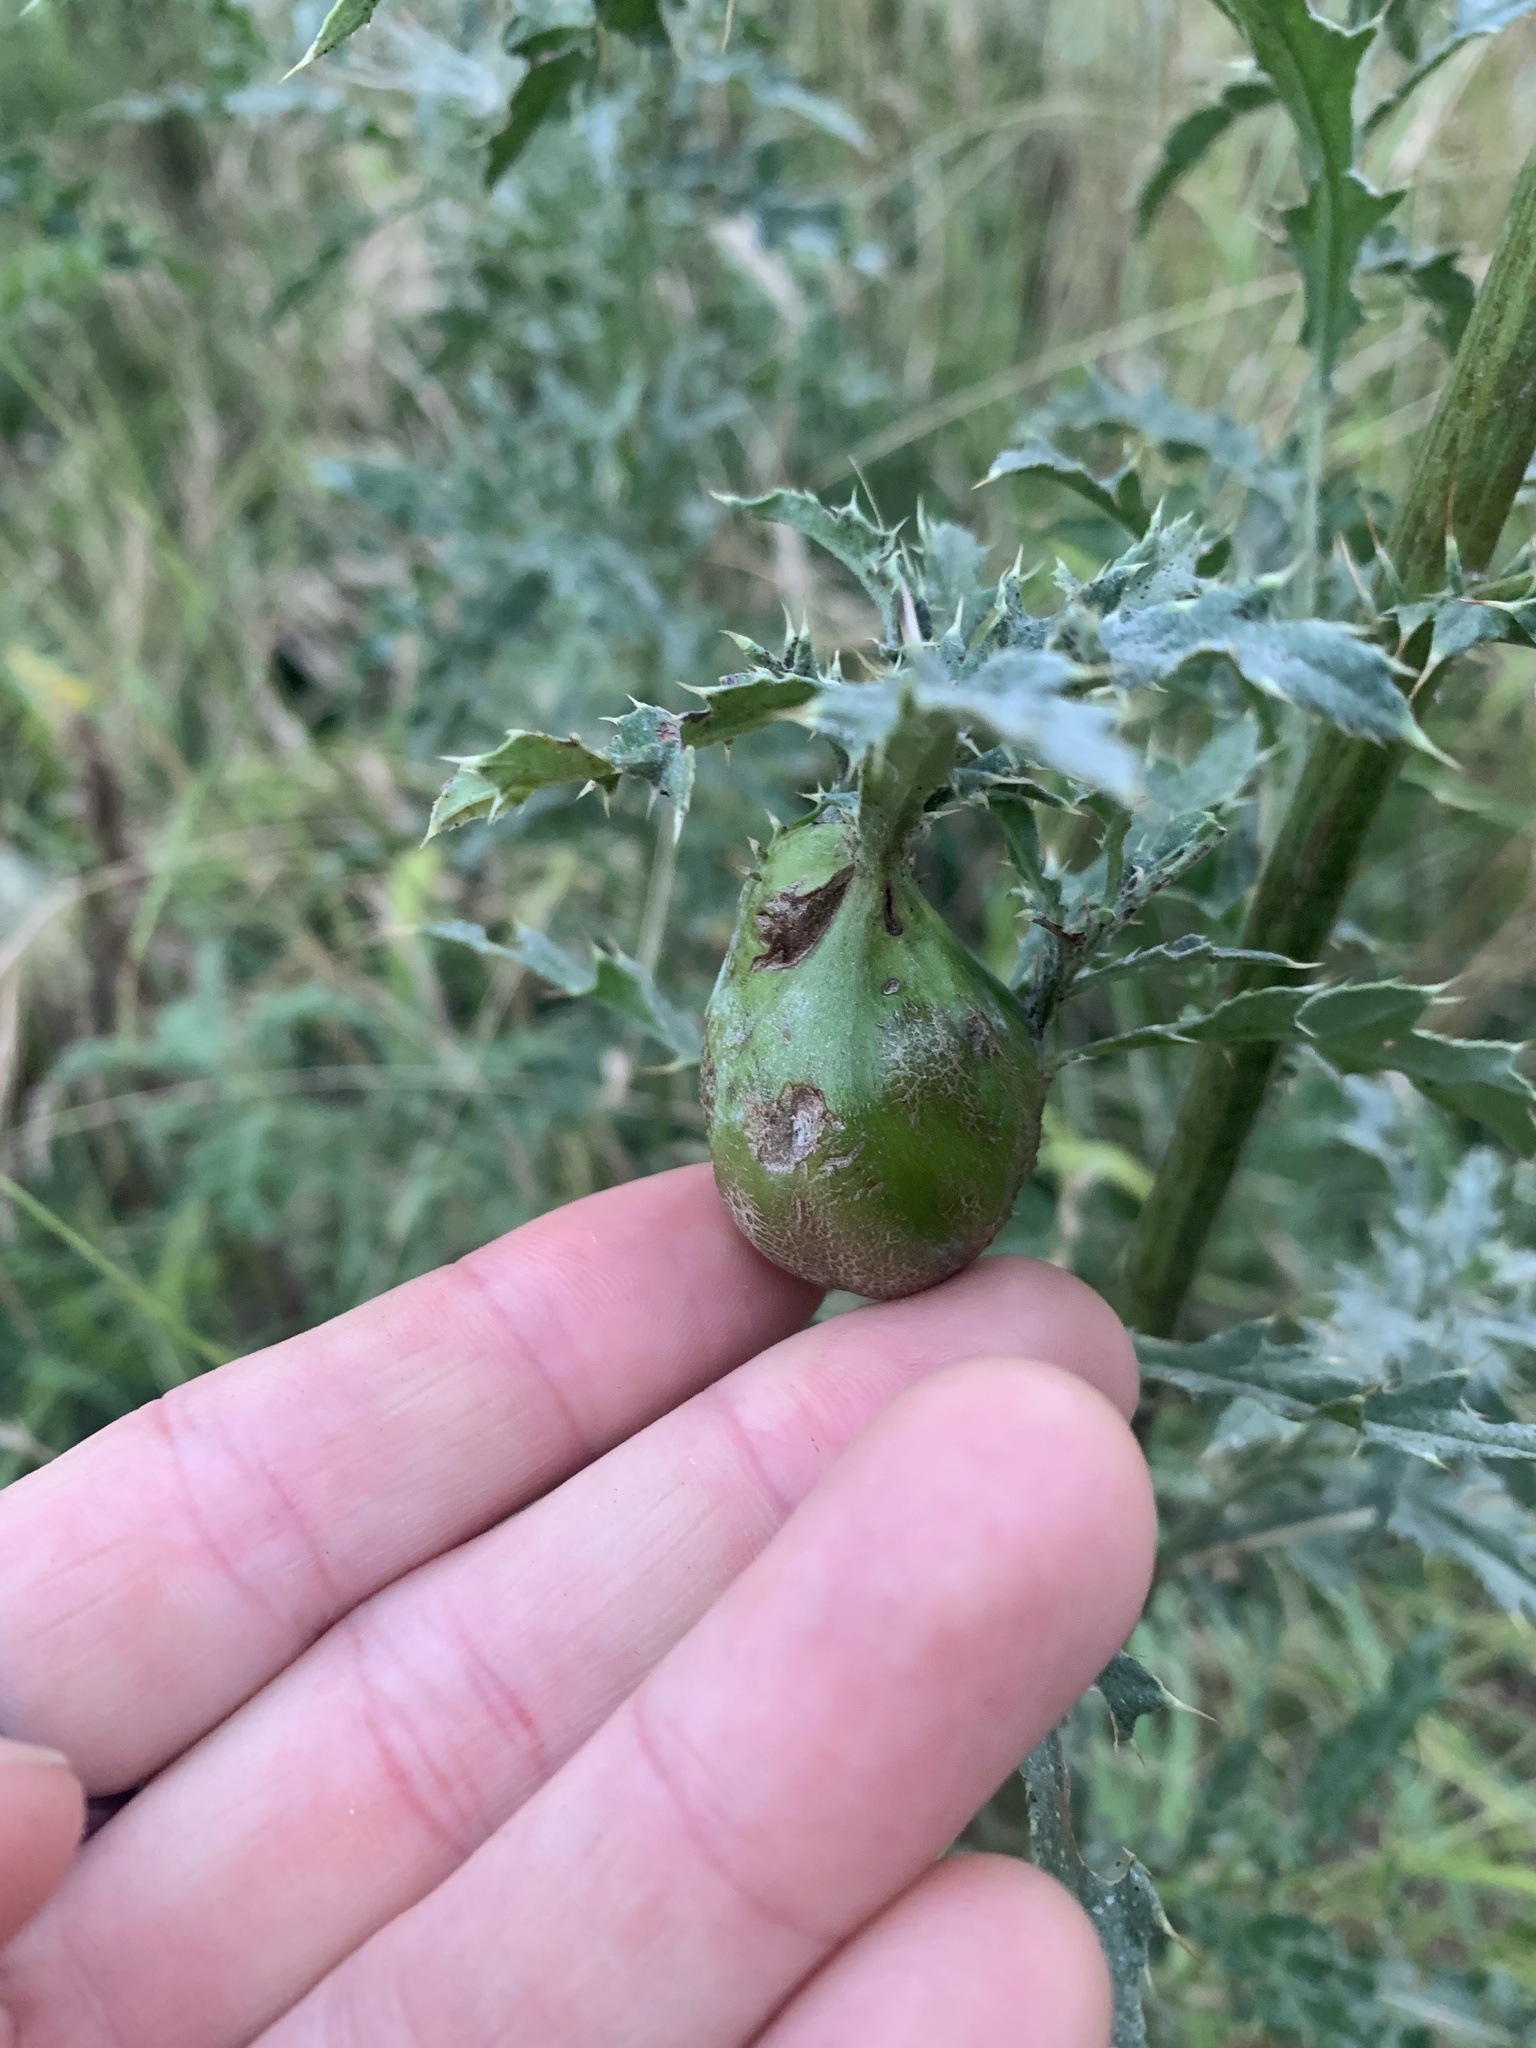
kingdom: Animalia
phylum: Arthropoda
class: Insecta
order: Diptera
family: Tephritidae
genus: Urophora
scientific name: Urophora cardui
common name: Fruit fly
